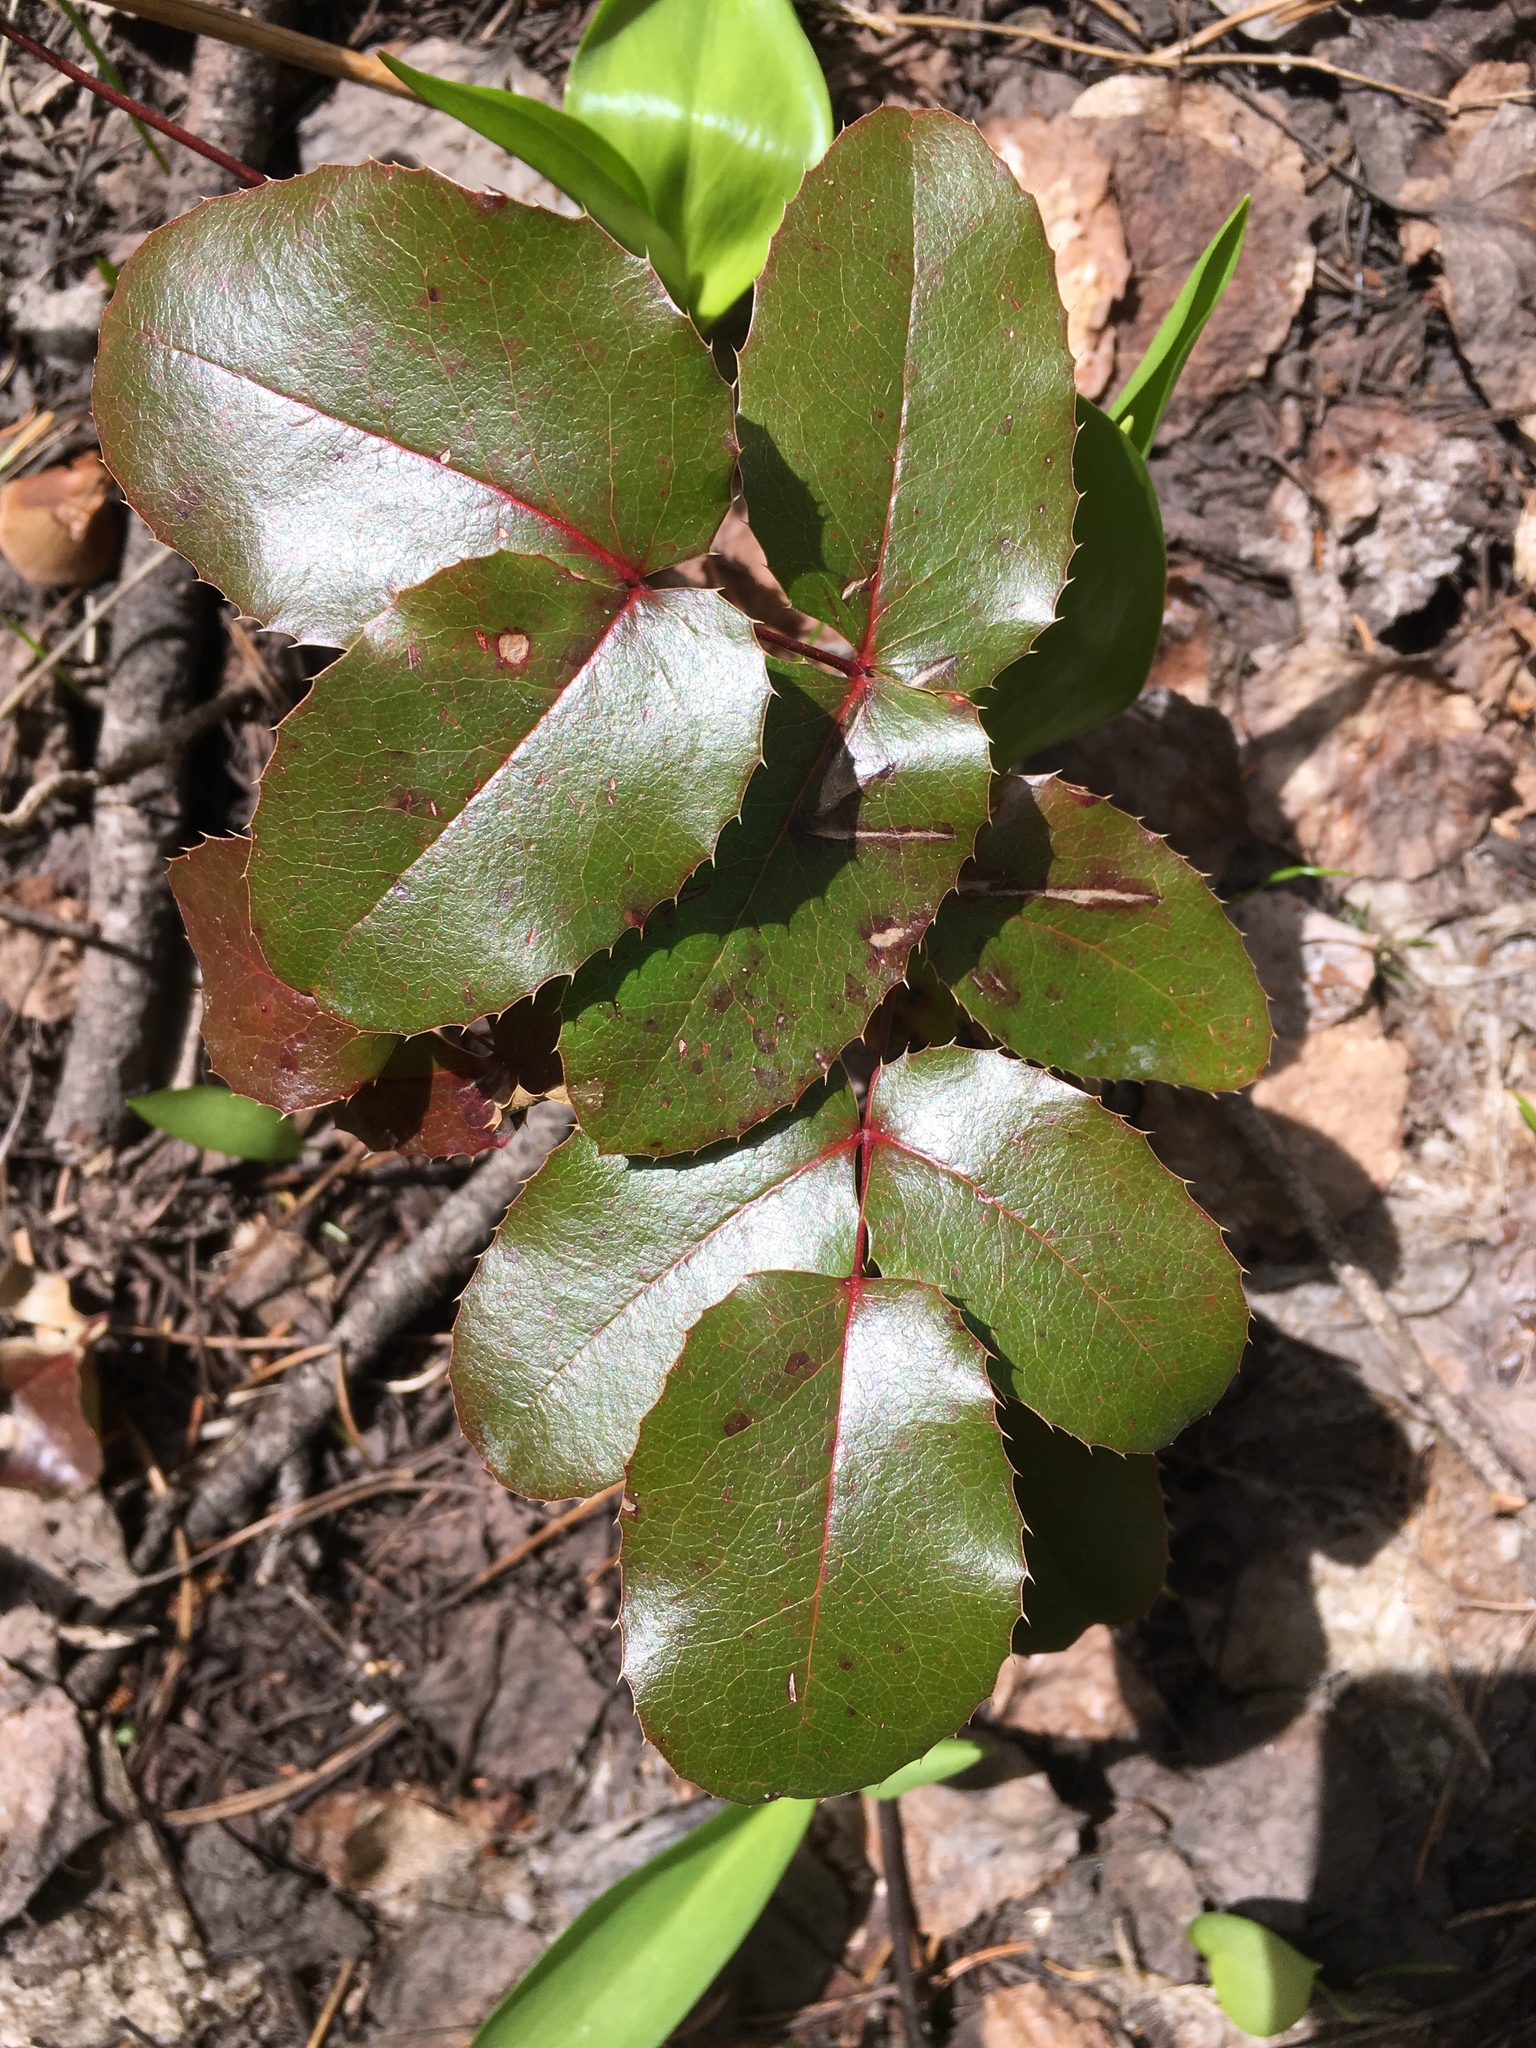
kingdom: Plantae
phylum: Tracheophyta
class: Magnoliopsida
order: Ranunculales
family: Berberidaceae
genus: Mahonia
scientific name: Mahonia repens
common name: Creeping oregon-grape
